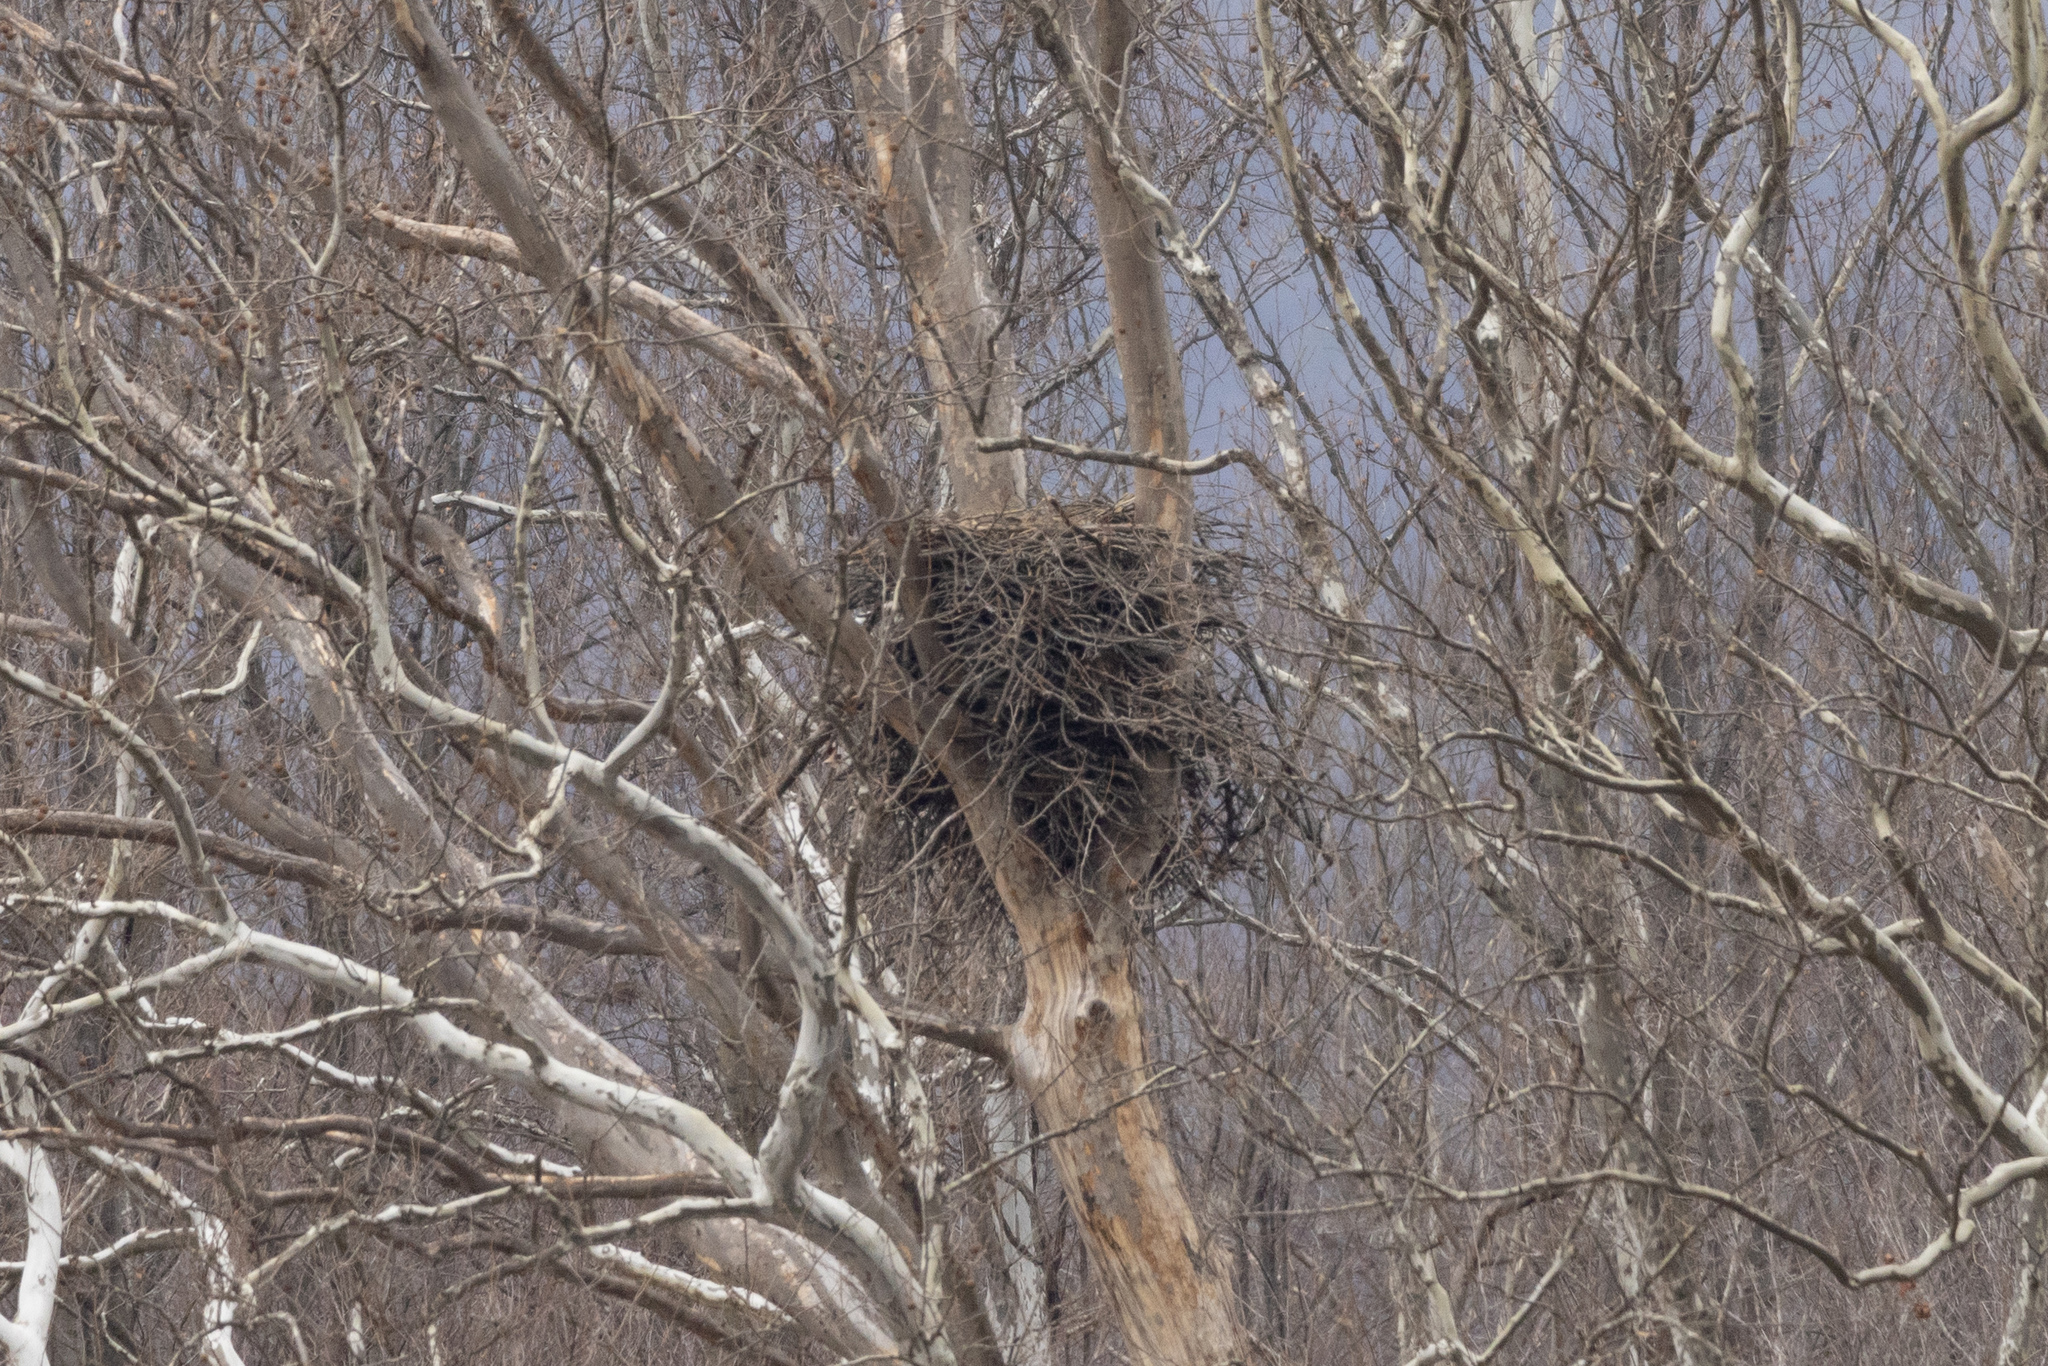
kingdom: Animalia
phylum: Chordata
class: Aves
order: Accipitriformes
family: Accipitridae
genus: Haliaeetus
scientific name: Haliaeetus leucocephalus
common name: Bald eagle
